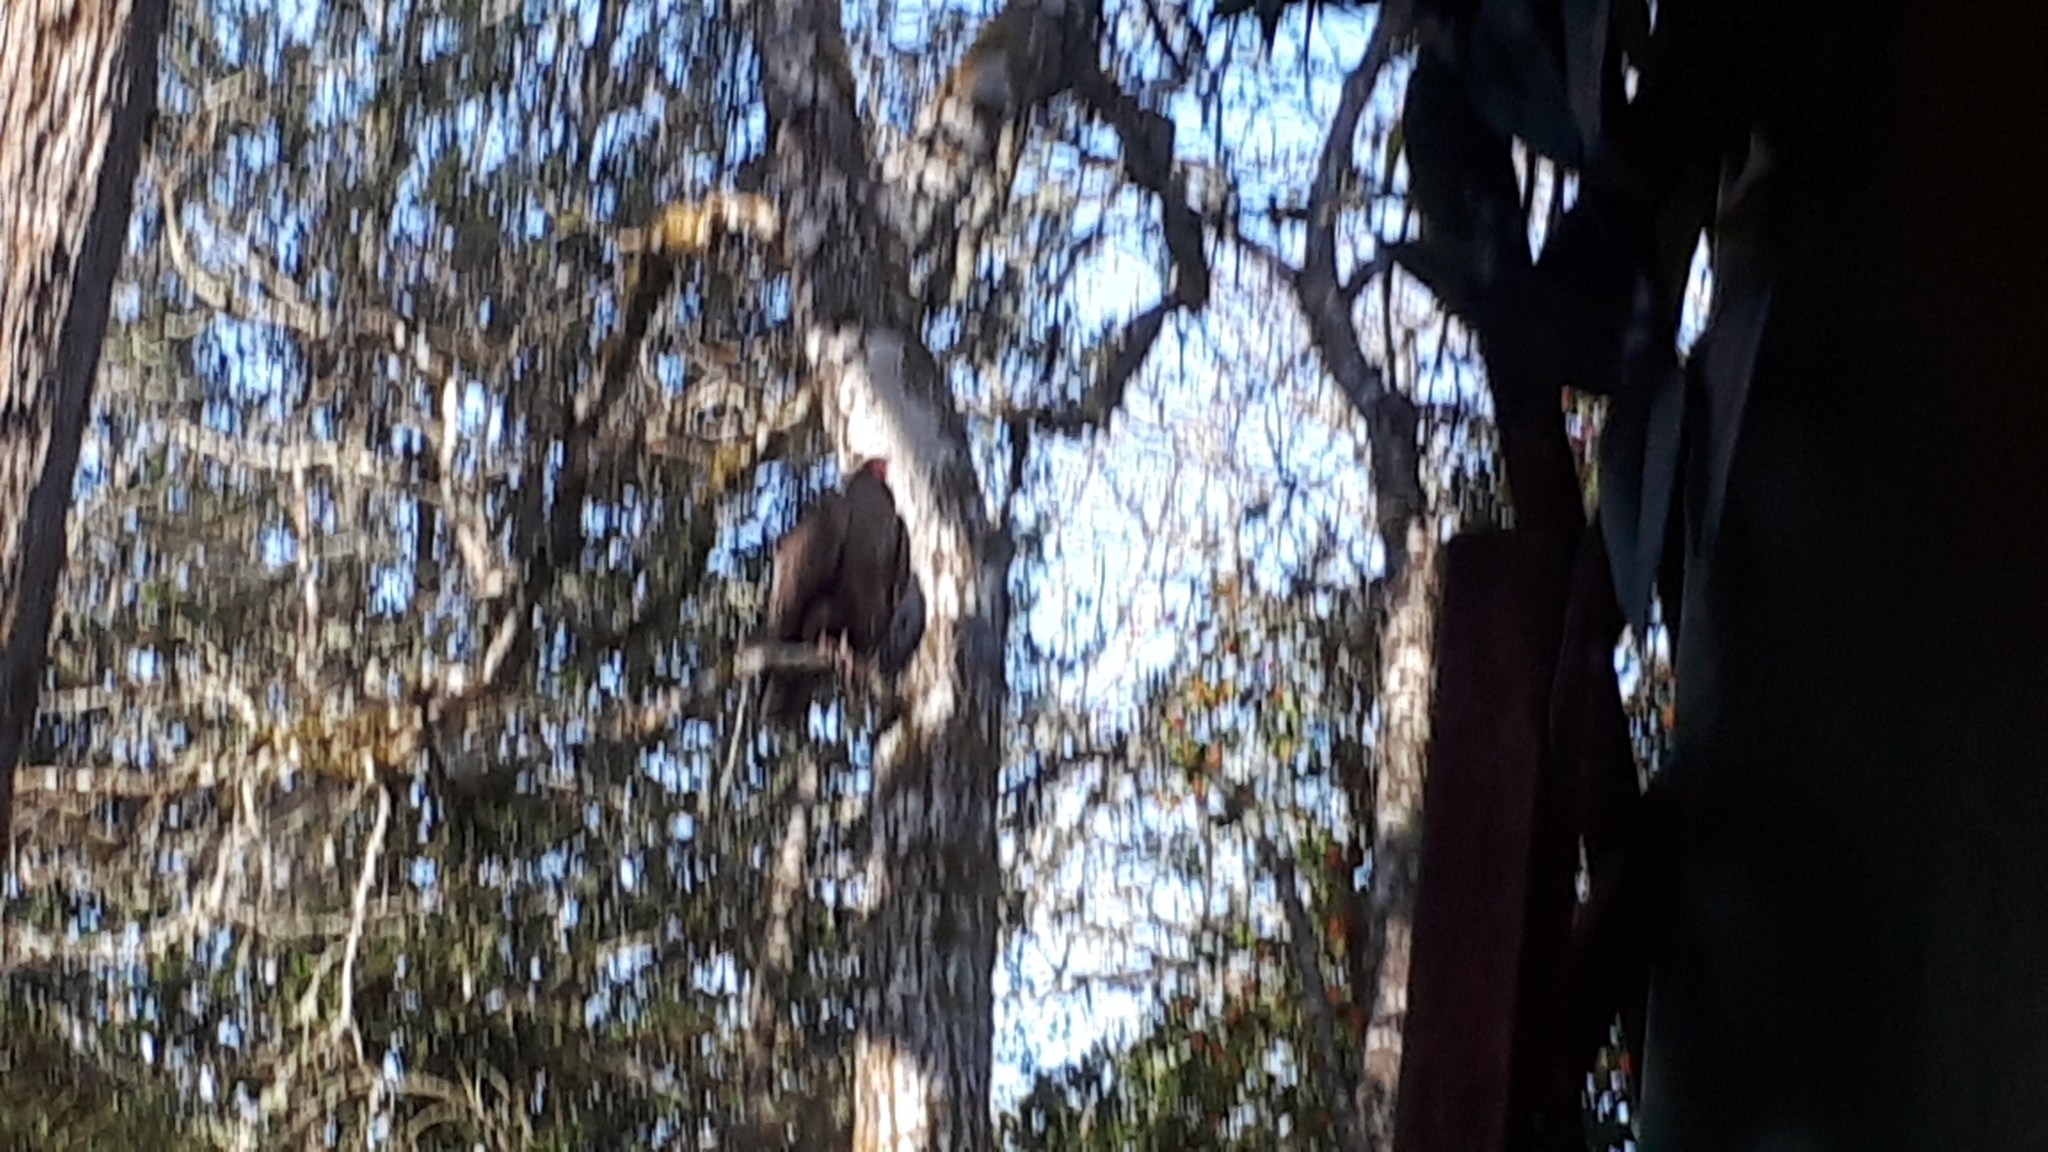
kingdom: Animalia
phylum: Chordata
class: Aves
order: Accipitriformes
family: Cathartidae
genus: Cathartes
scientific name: Cathartes aura
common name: Turkey vulture
